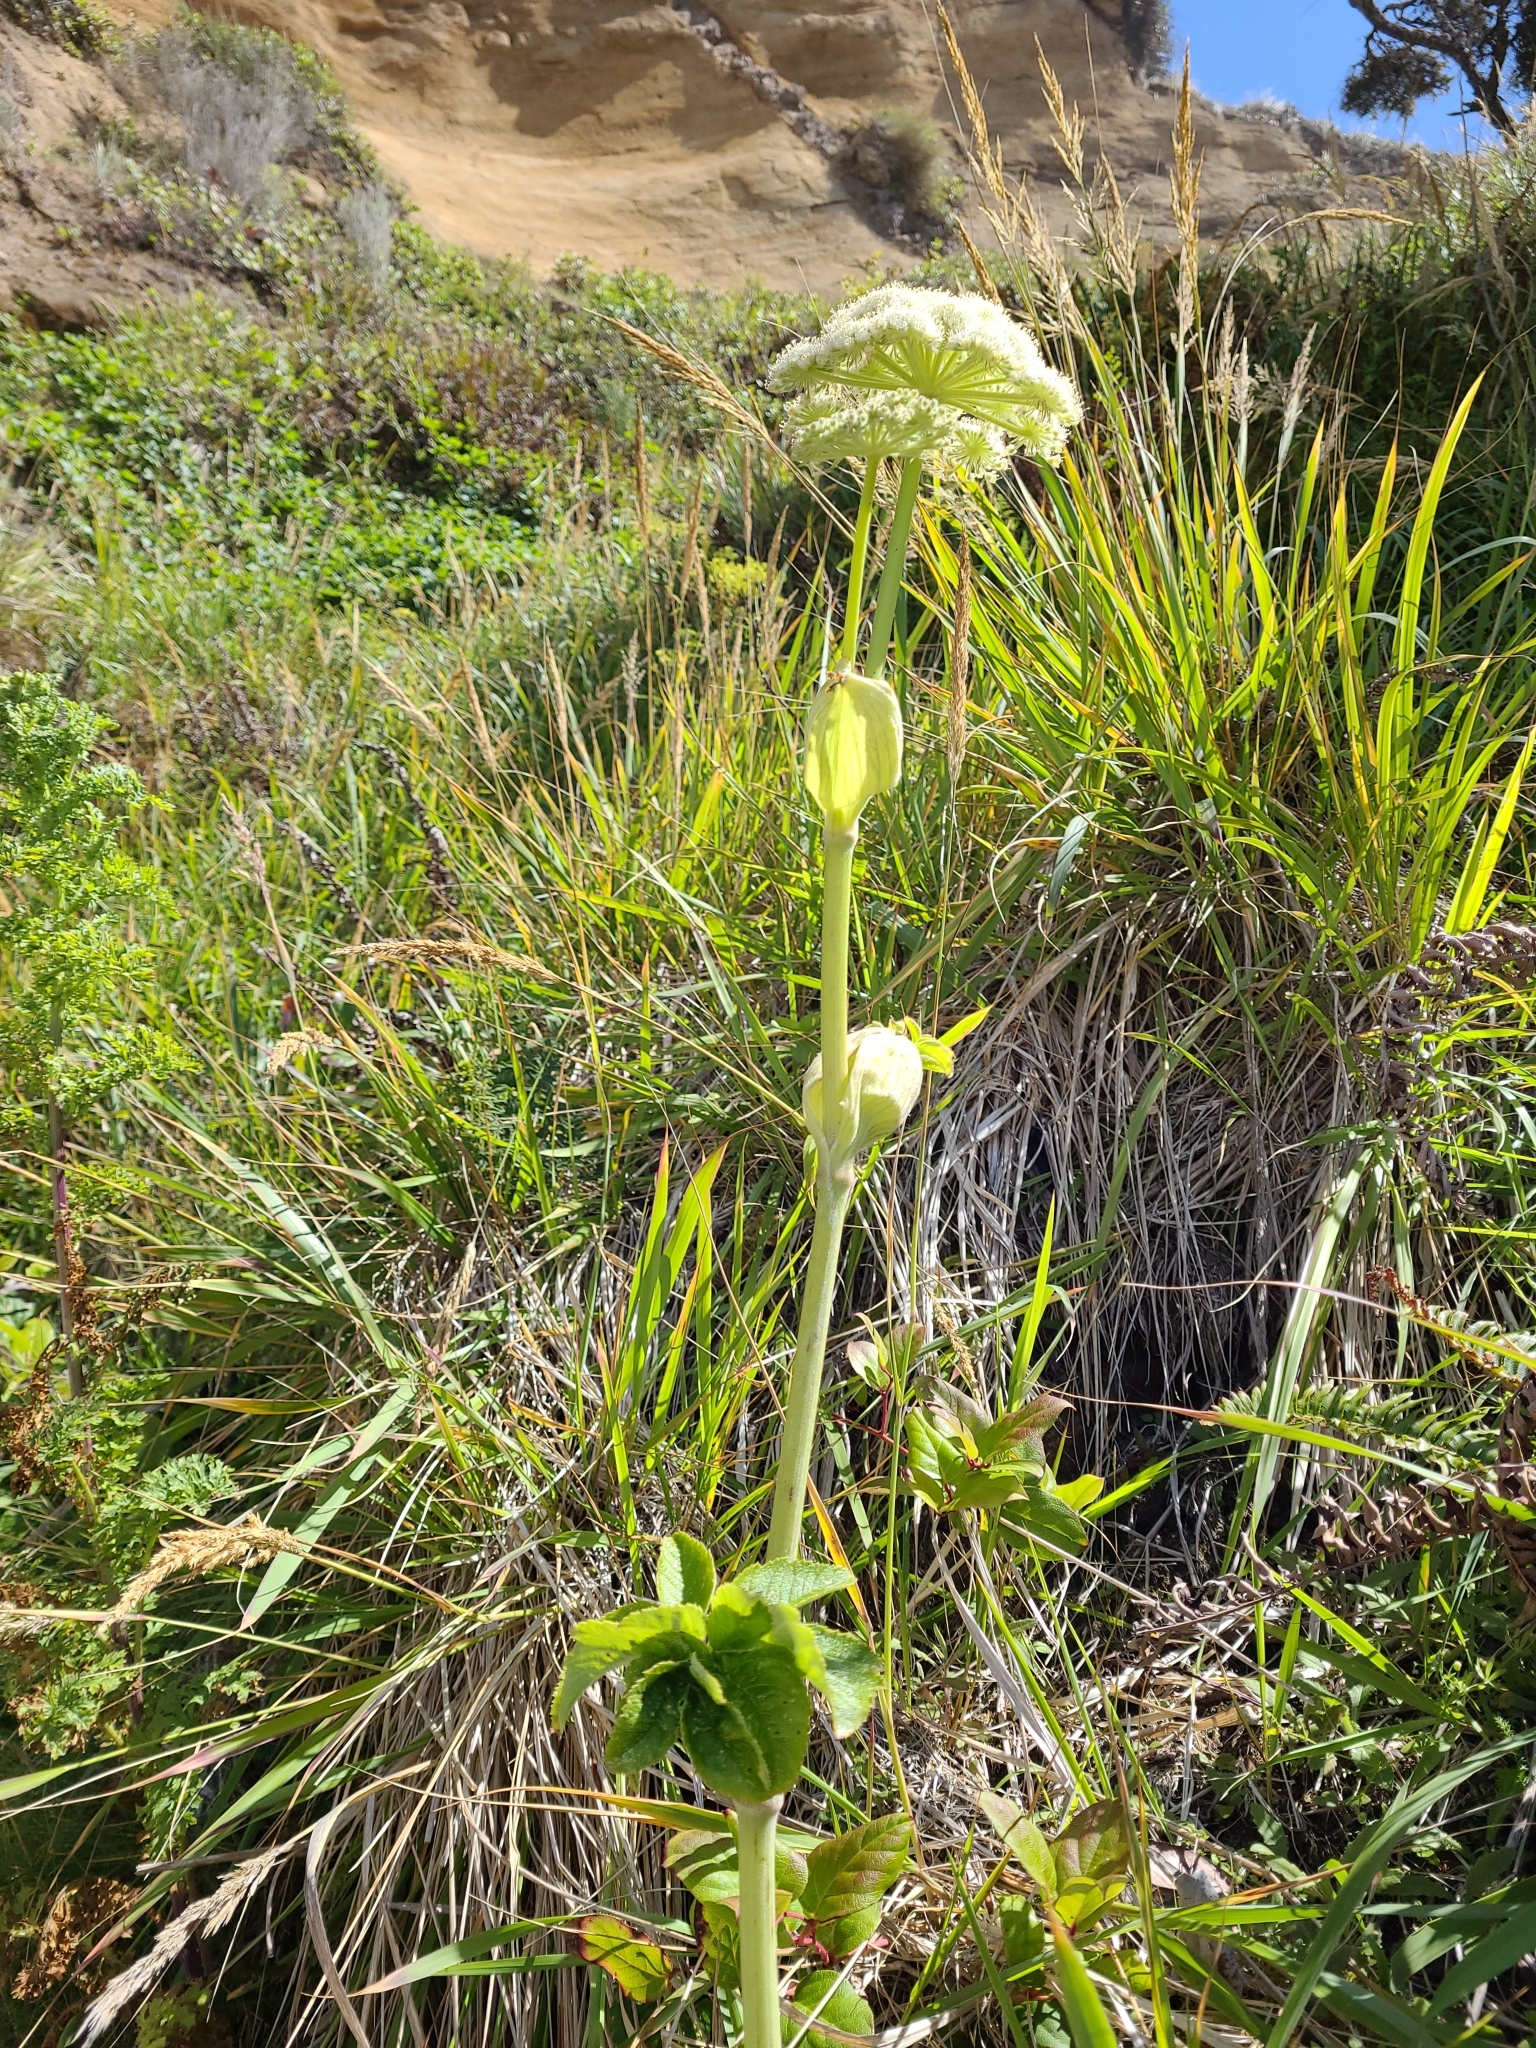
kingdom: Plantae
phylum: Tracheophyta
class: Magnoliopsida
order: Apiales
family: Apiaceae
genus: Angelica
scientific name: Angelica hendersonii
